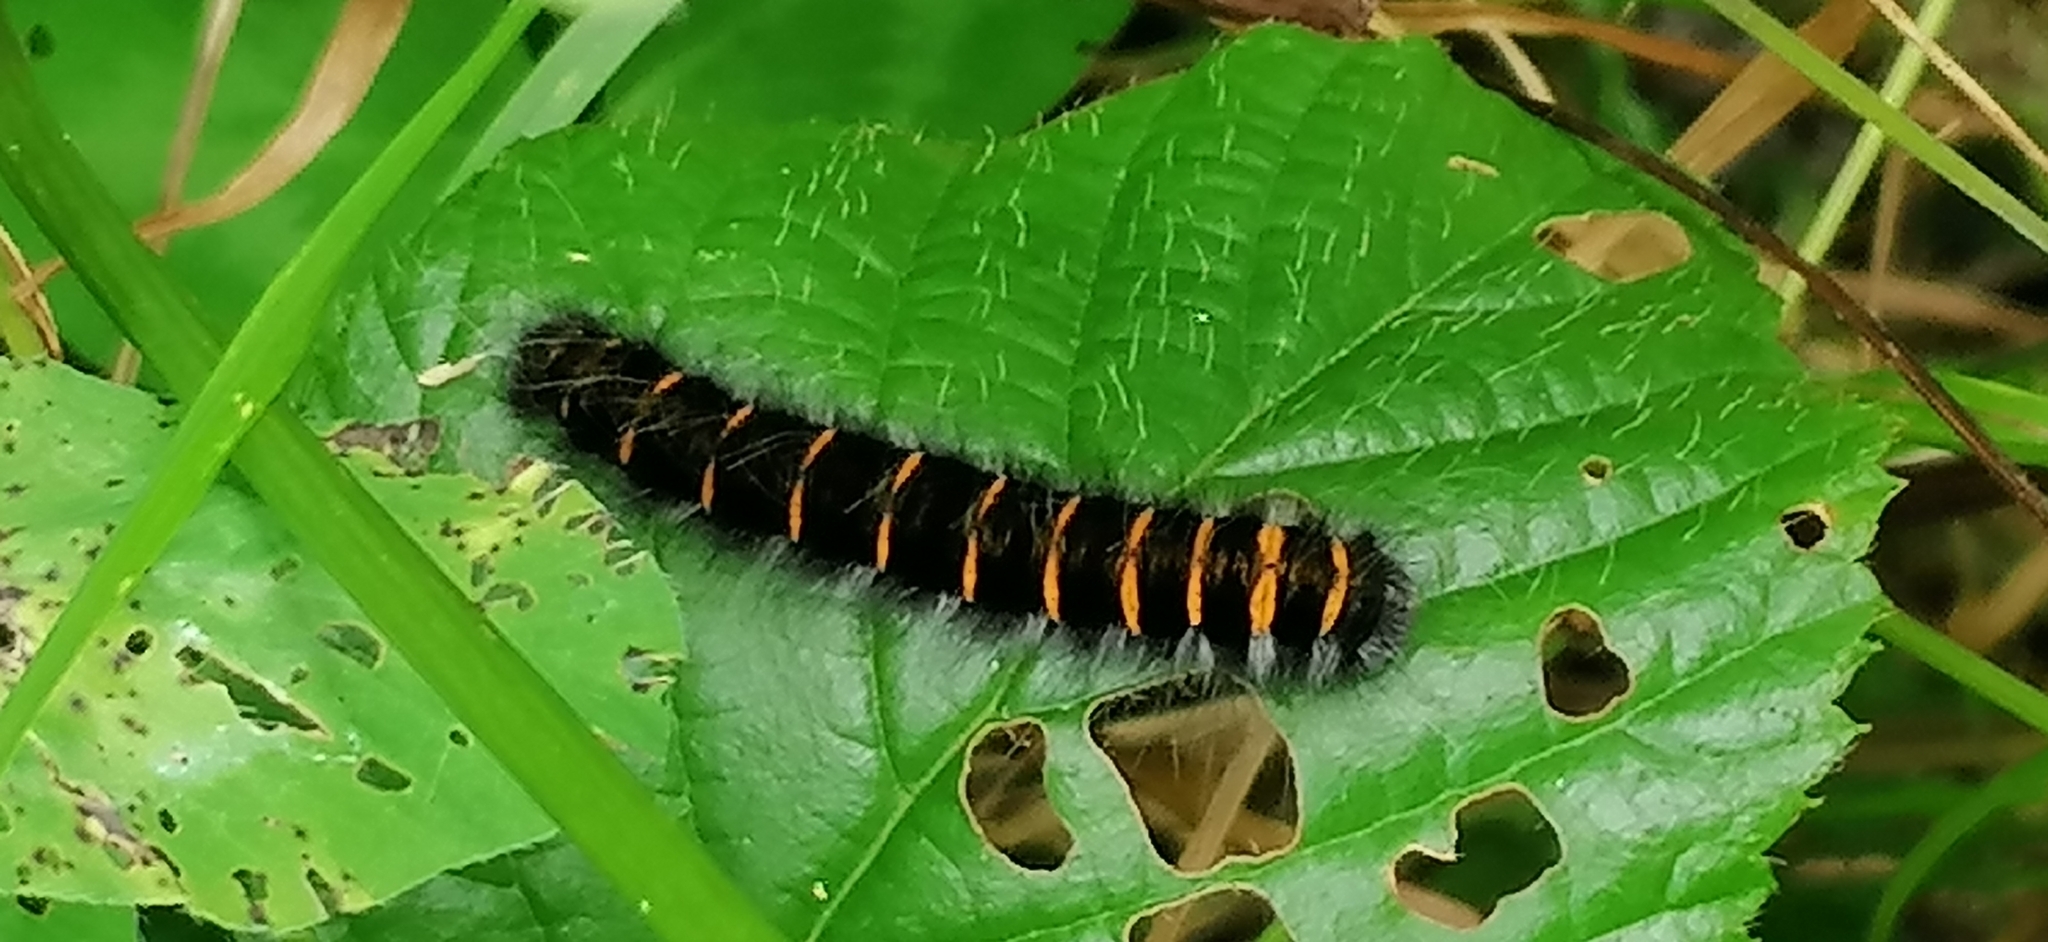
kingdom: Animalia
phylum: Arthropoda
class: Insecta
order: Lepidoptera
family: Lasiocampidae
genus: Macrothylacia
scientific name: Macrothylacia rubi
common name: Fox moth
